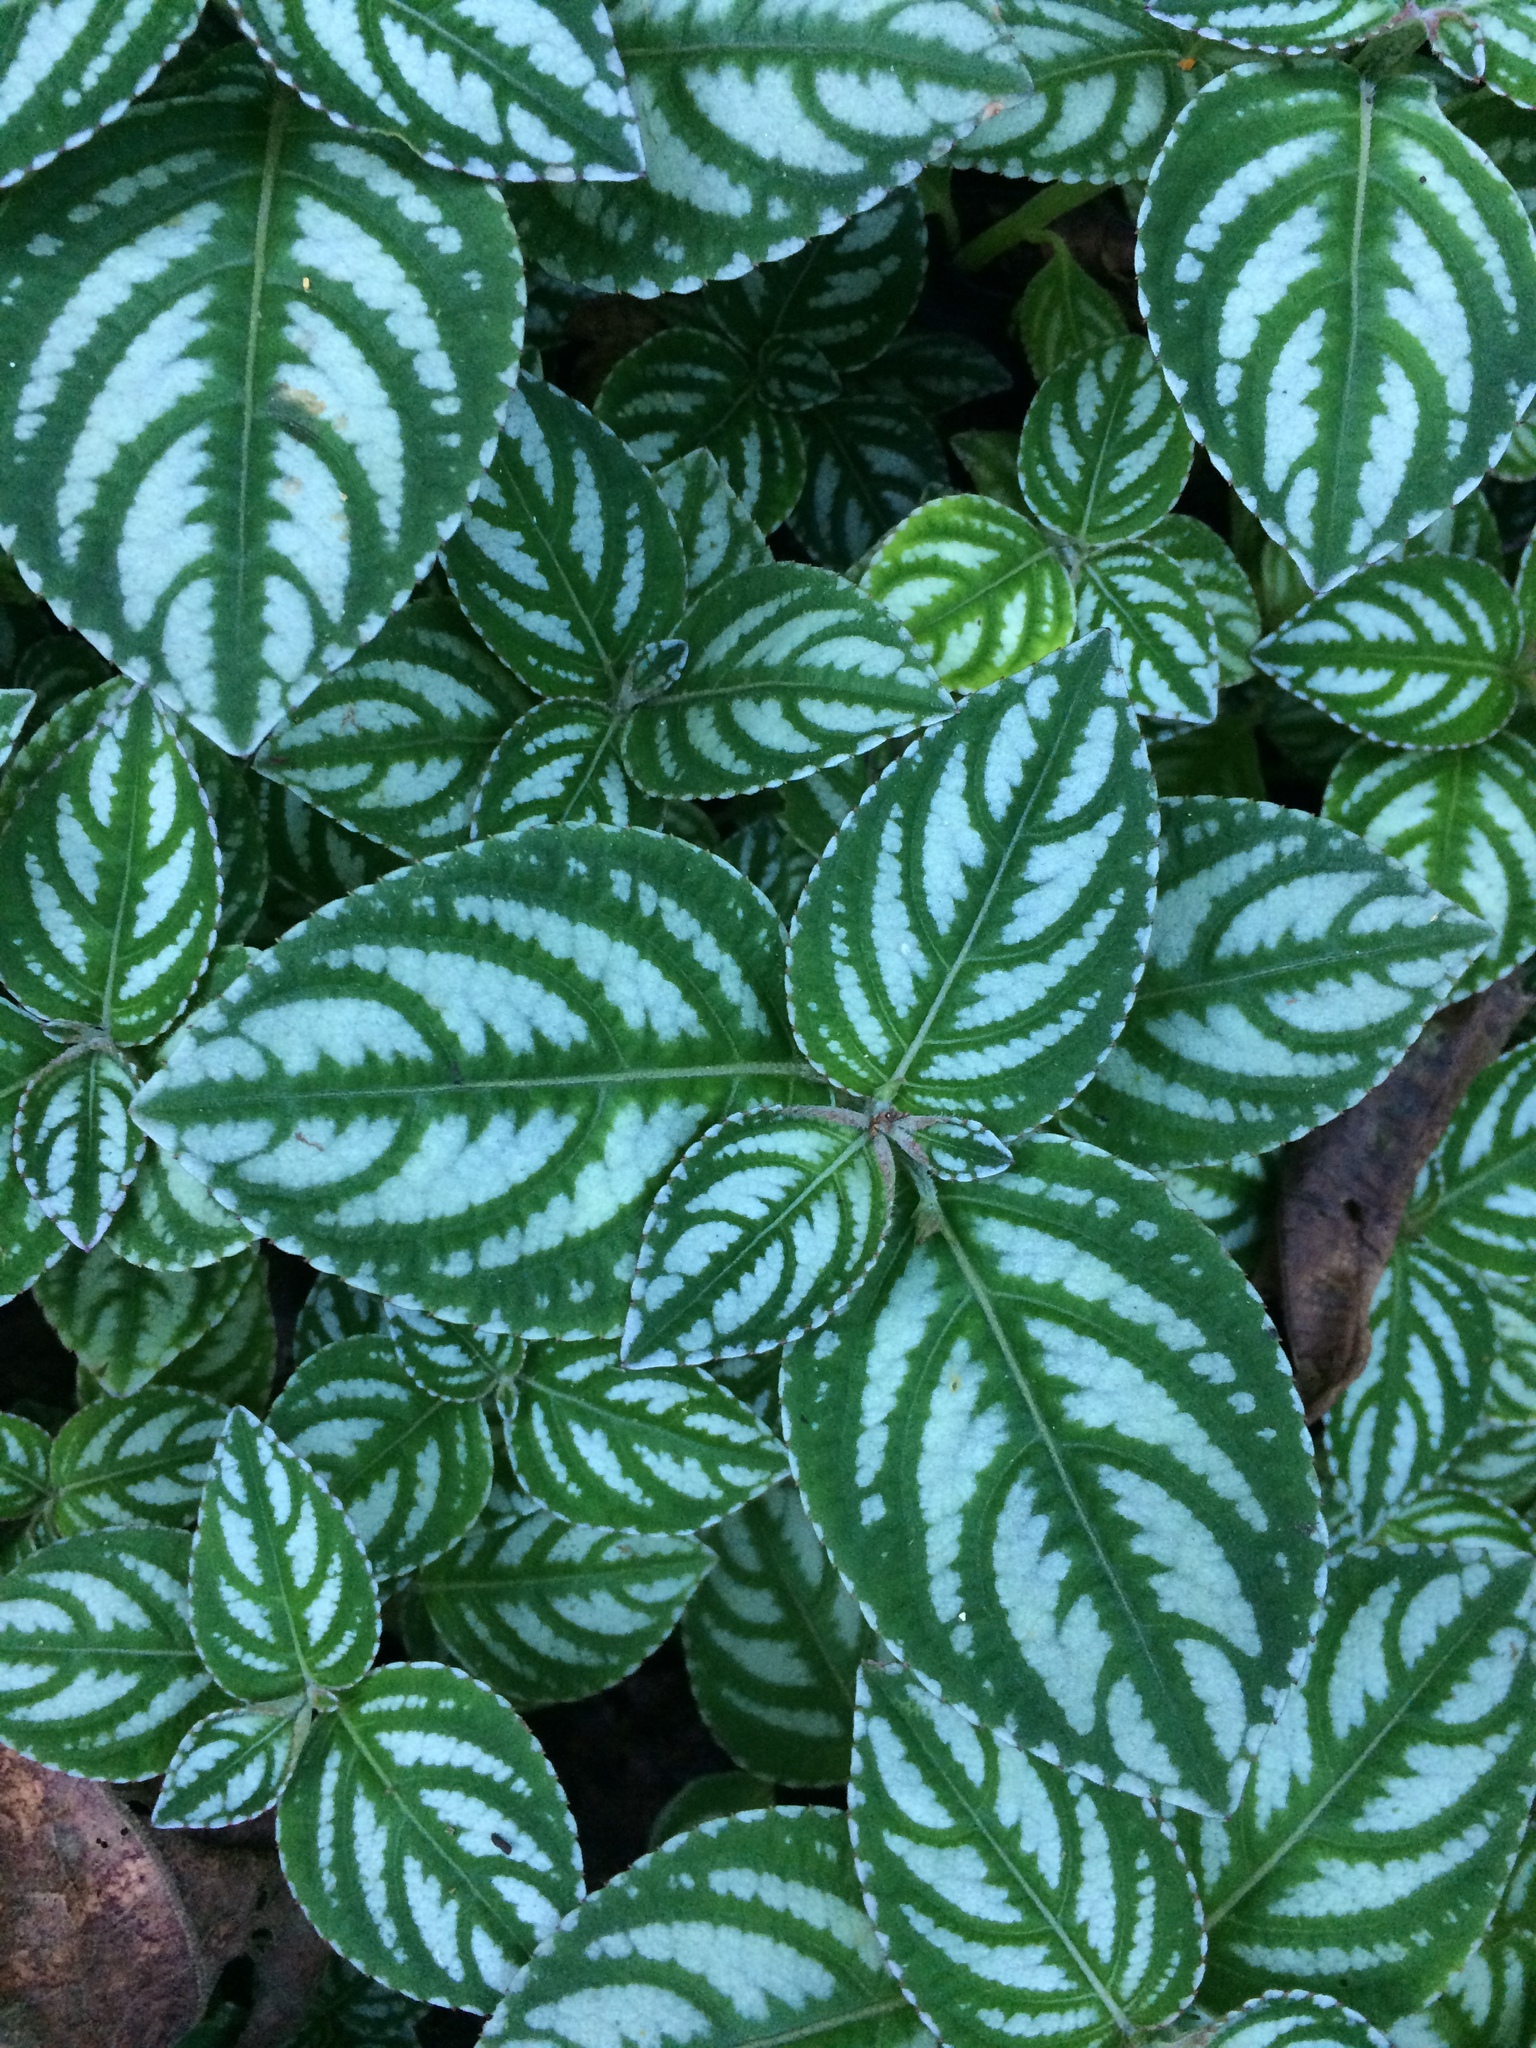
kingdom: Plantae
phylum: Tracheophyta
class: Magnoliopsida
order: Ericales
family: Balsaminaceae
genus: Impatiens
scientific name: Impatiens marianae
